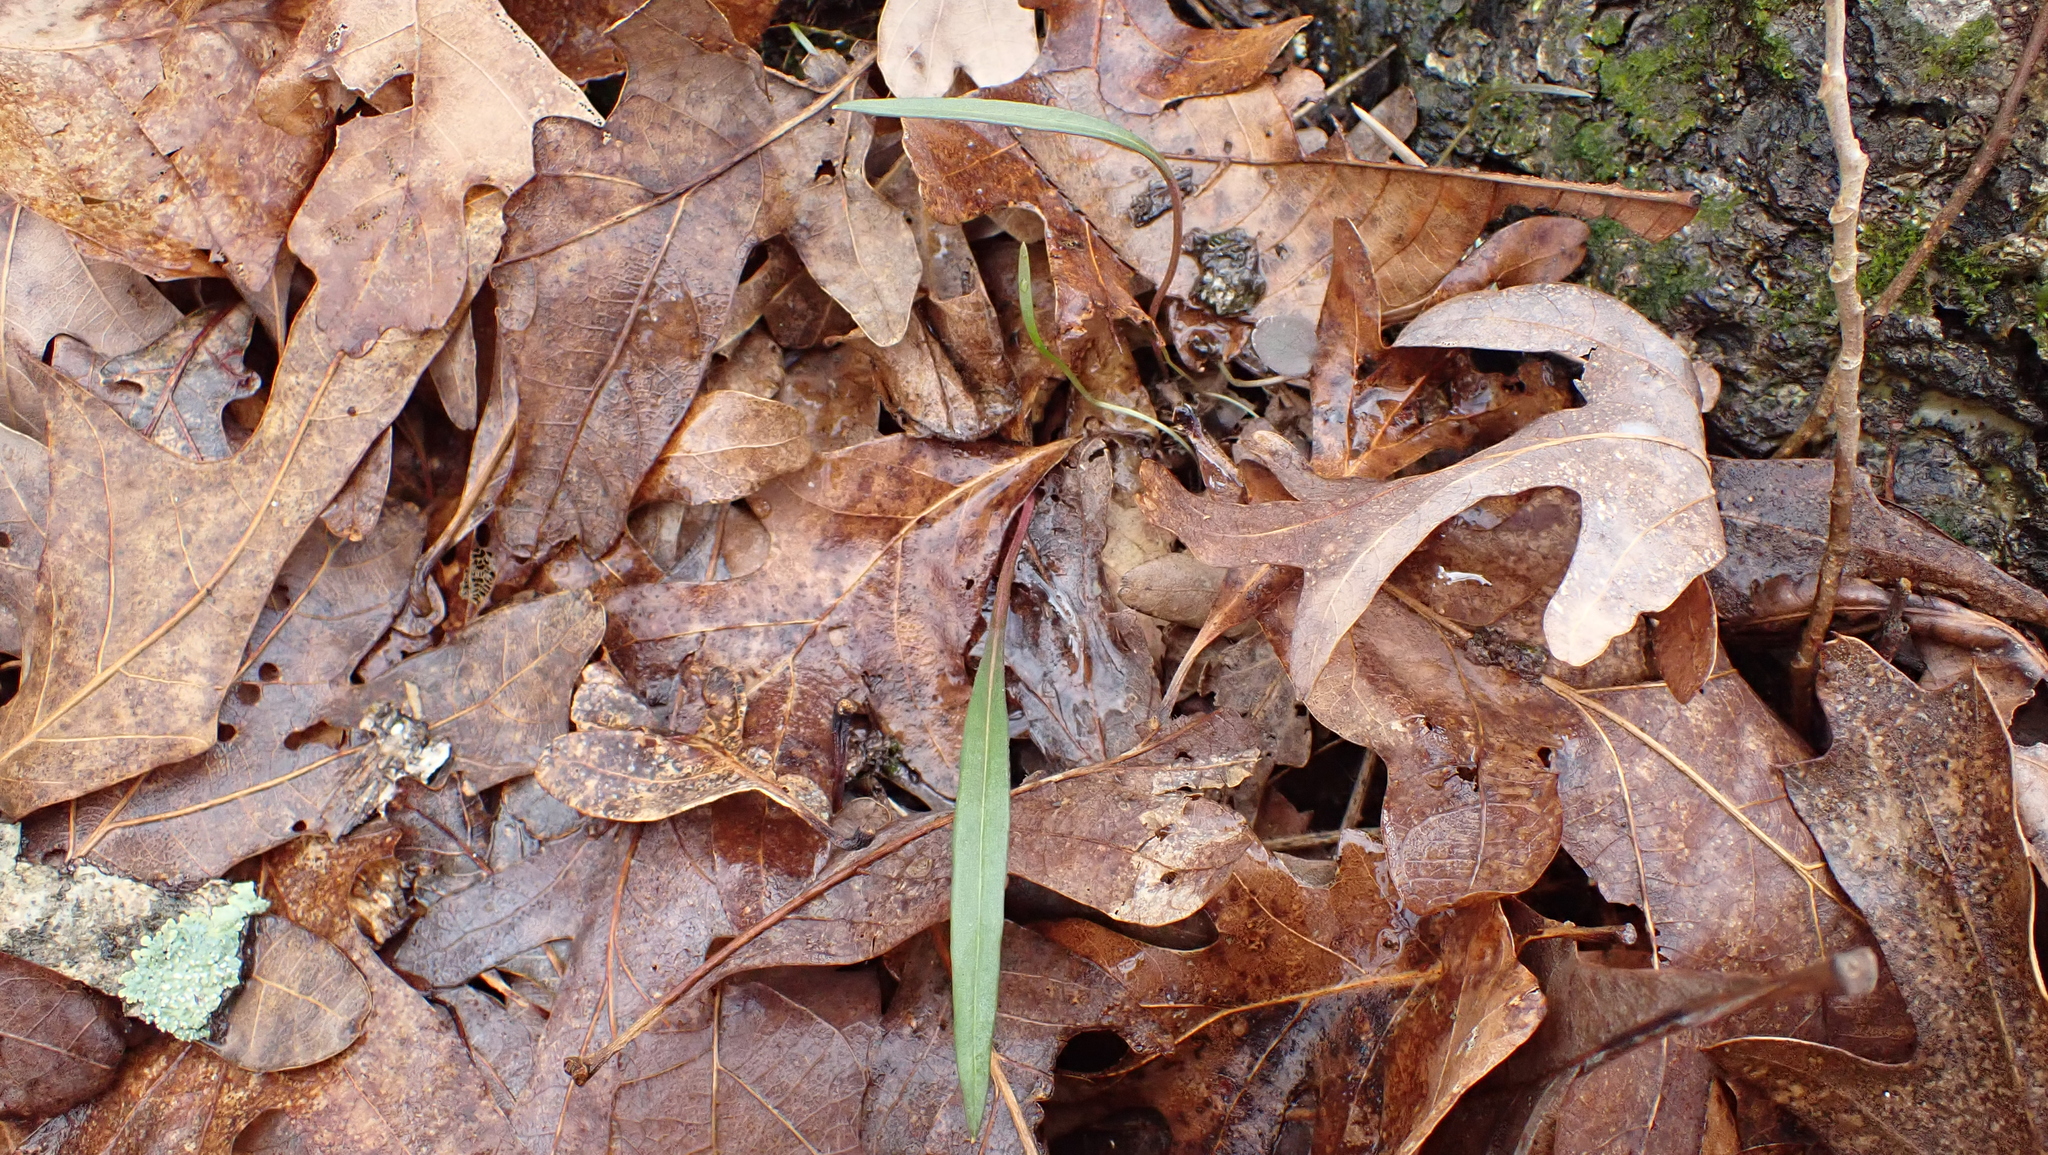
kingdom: Plantae
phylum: Tracheophyta
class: Magnoliopsida
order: Caryophyllales
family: Montiaceae
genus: Claytonia
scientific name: Claytonia virginica
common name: Virginia springbeauty
